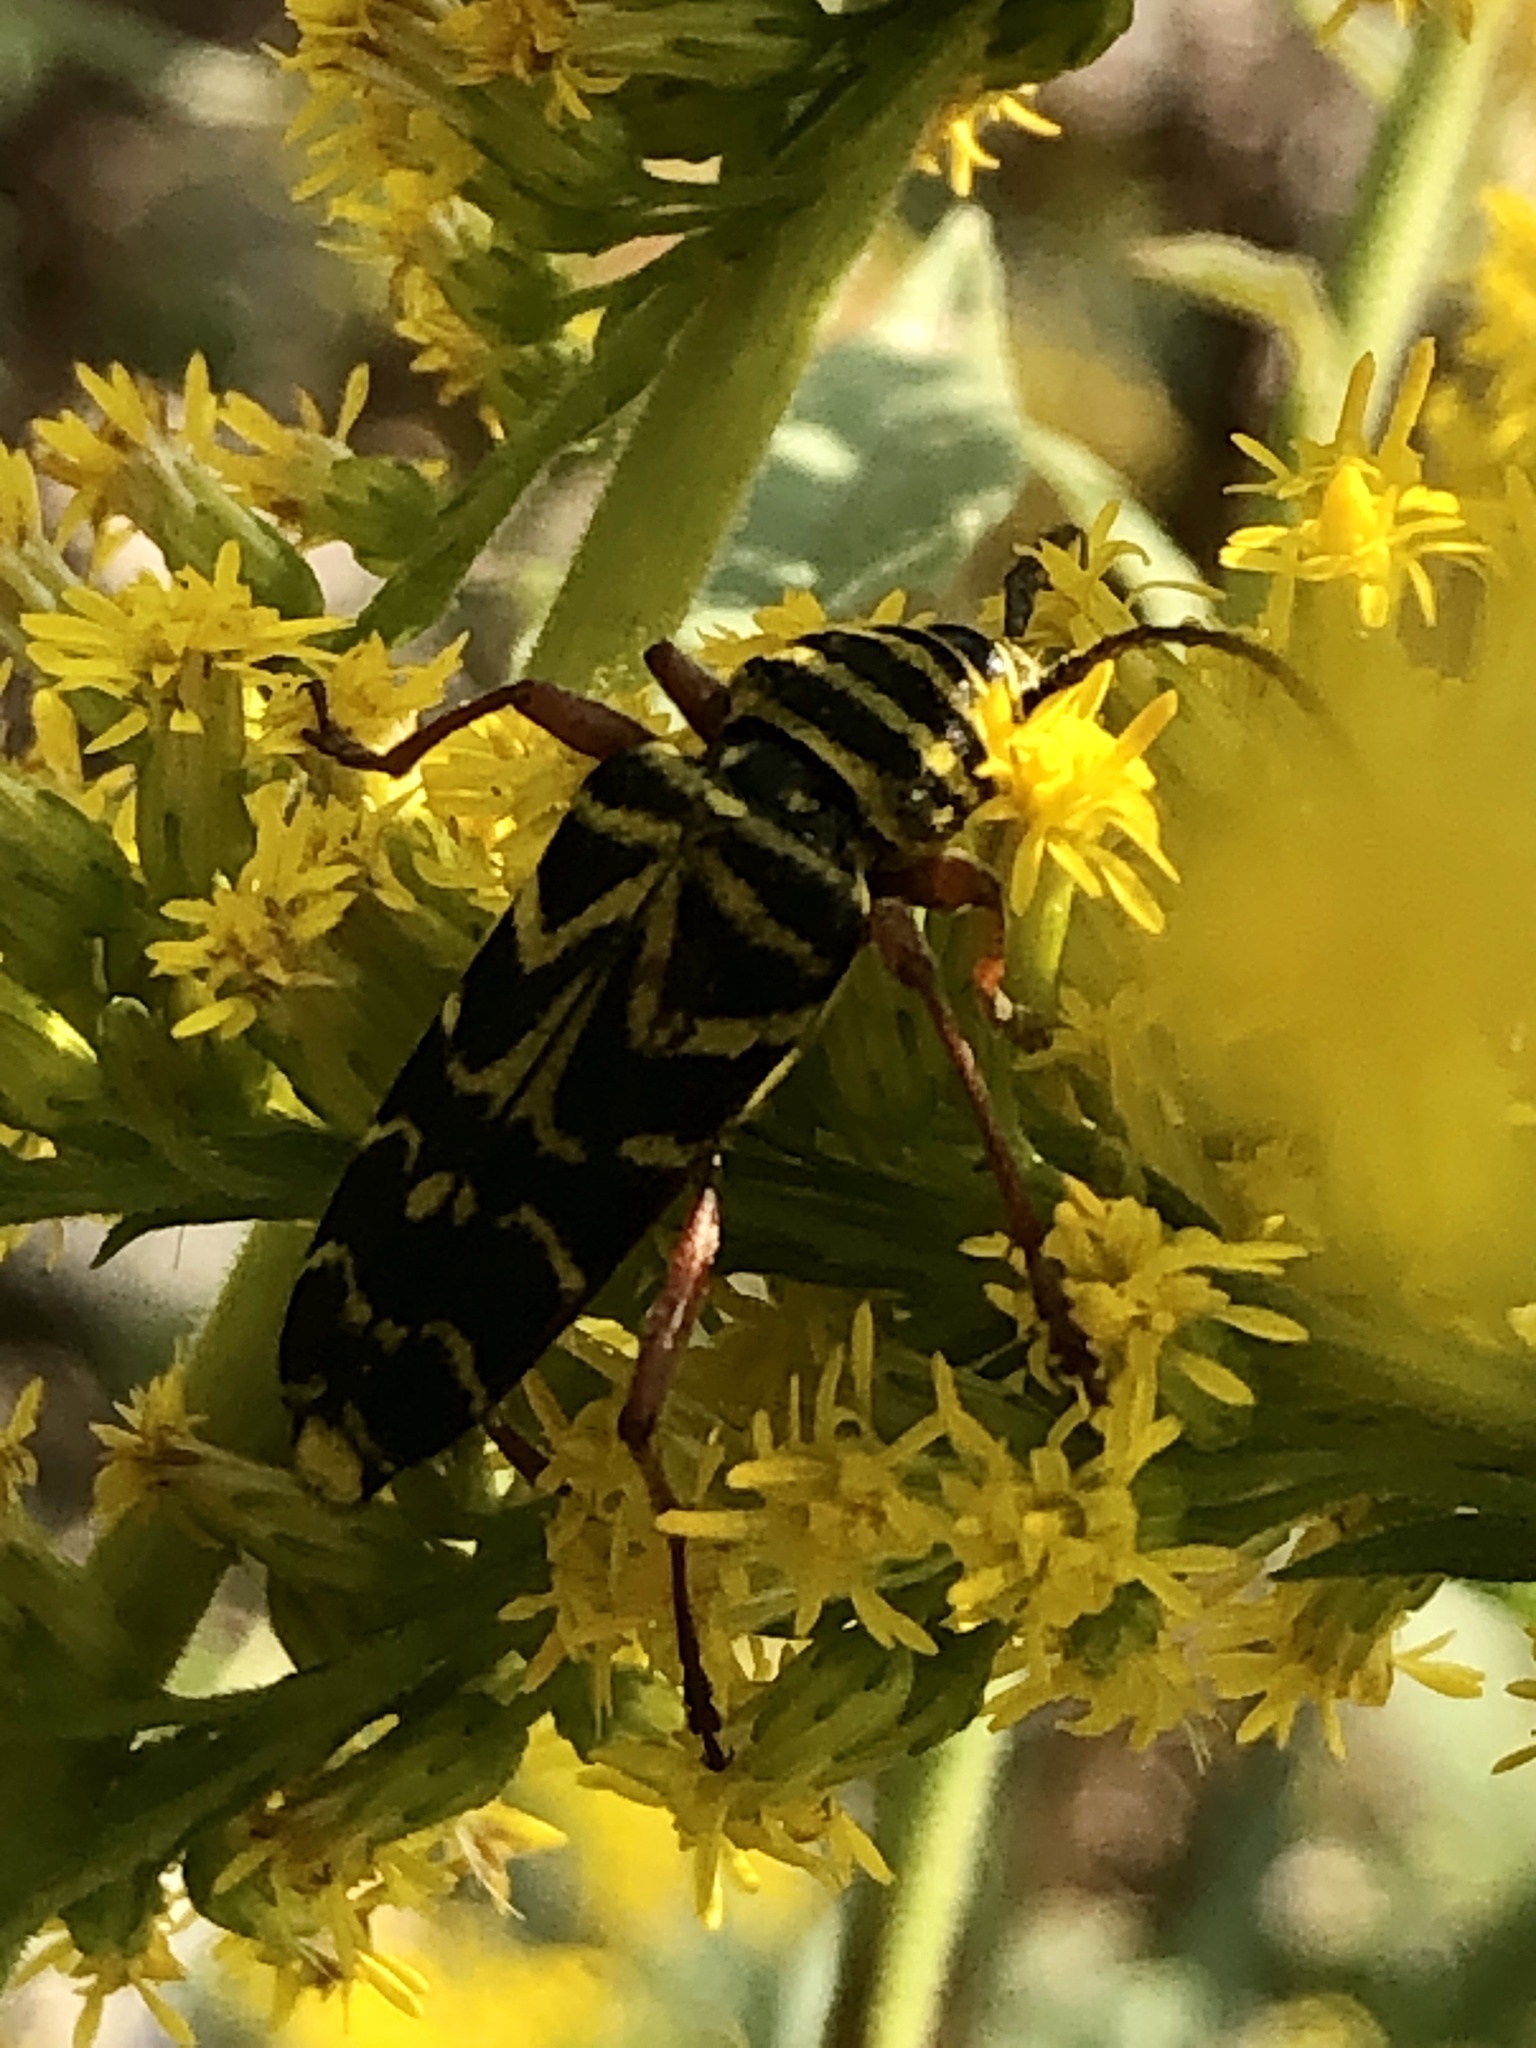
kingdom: Animalia
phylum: Arthropoda
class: Insecta
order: Coleoptera
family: Cerambycidae
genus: Megacyllene
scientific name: Megacyllene robiniae
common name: Locust borer
